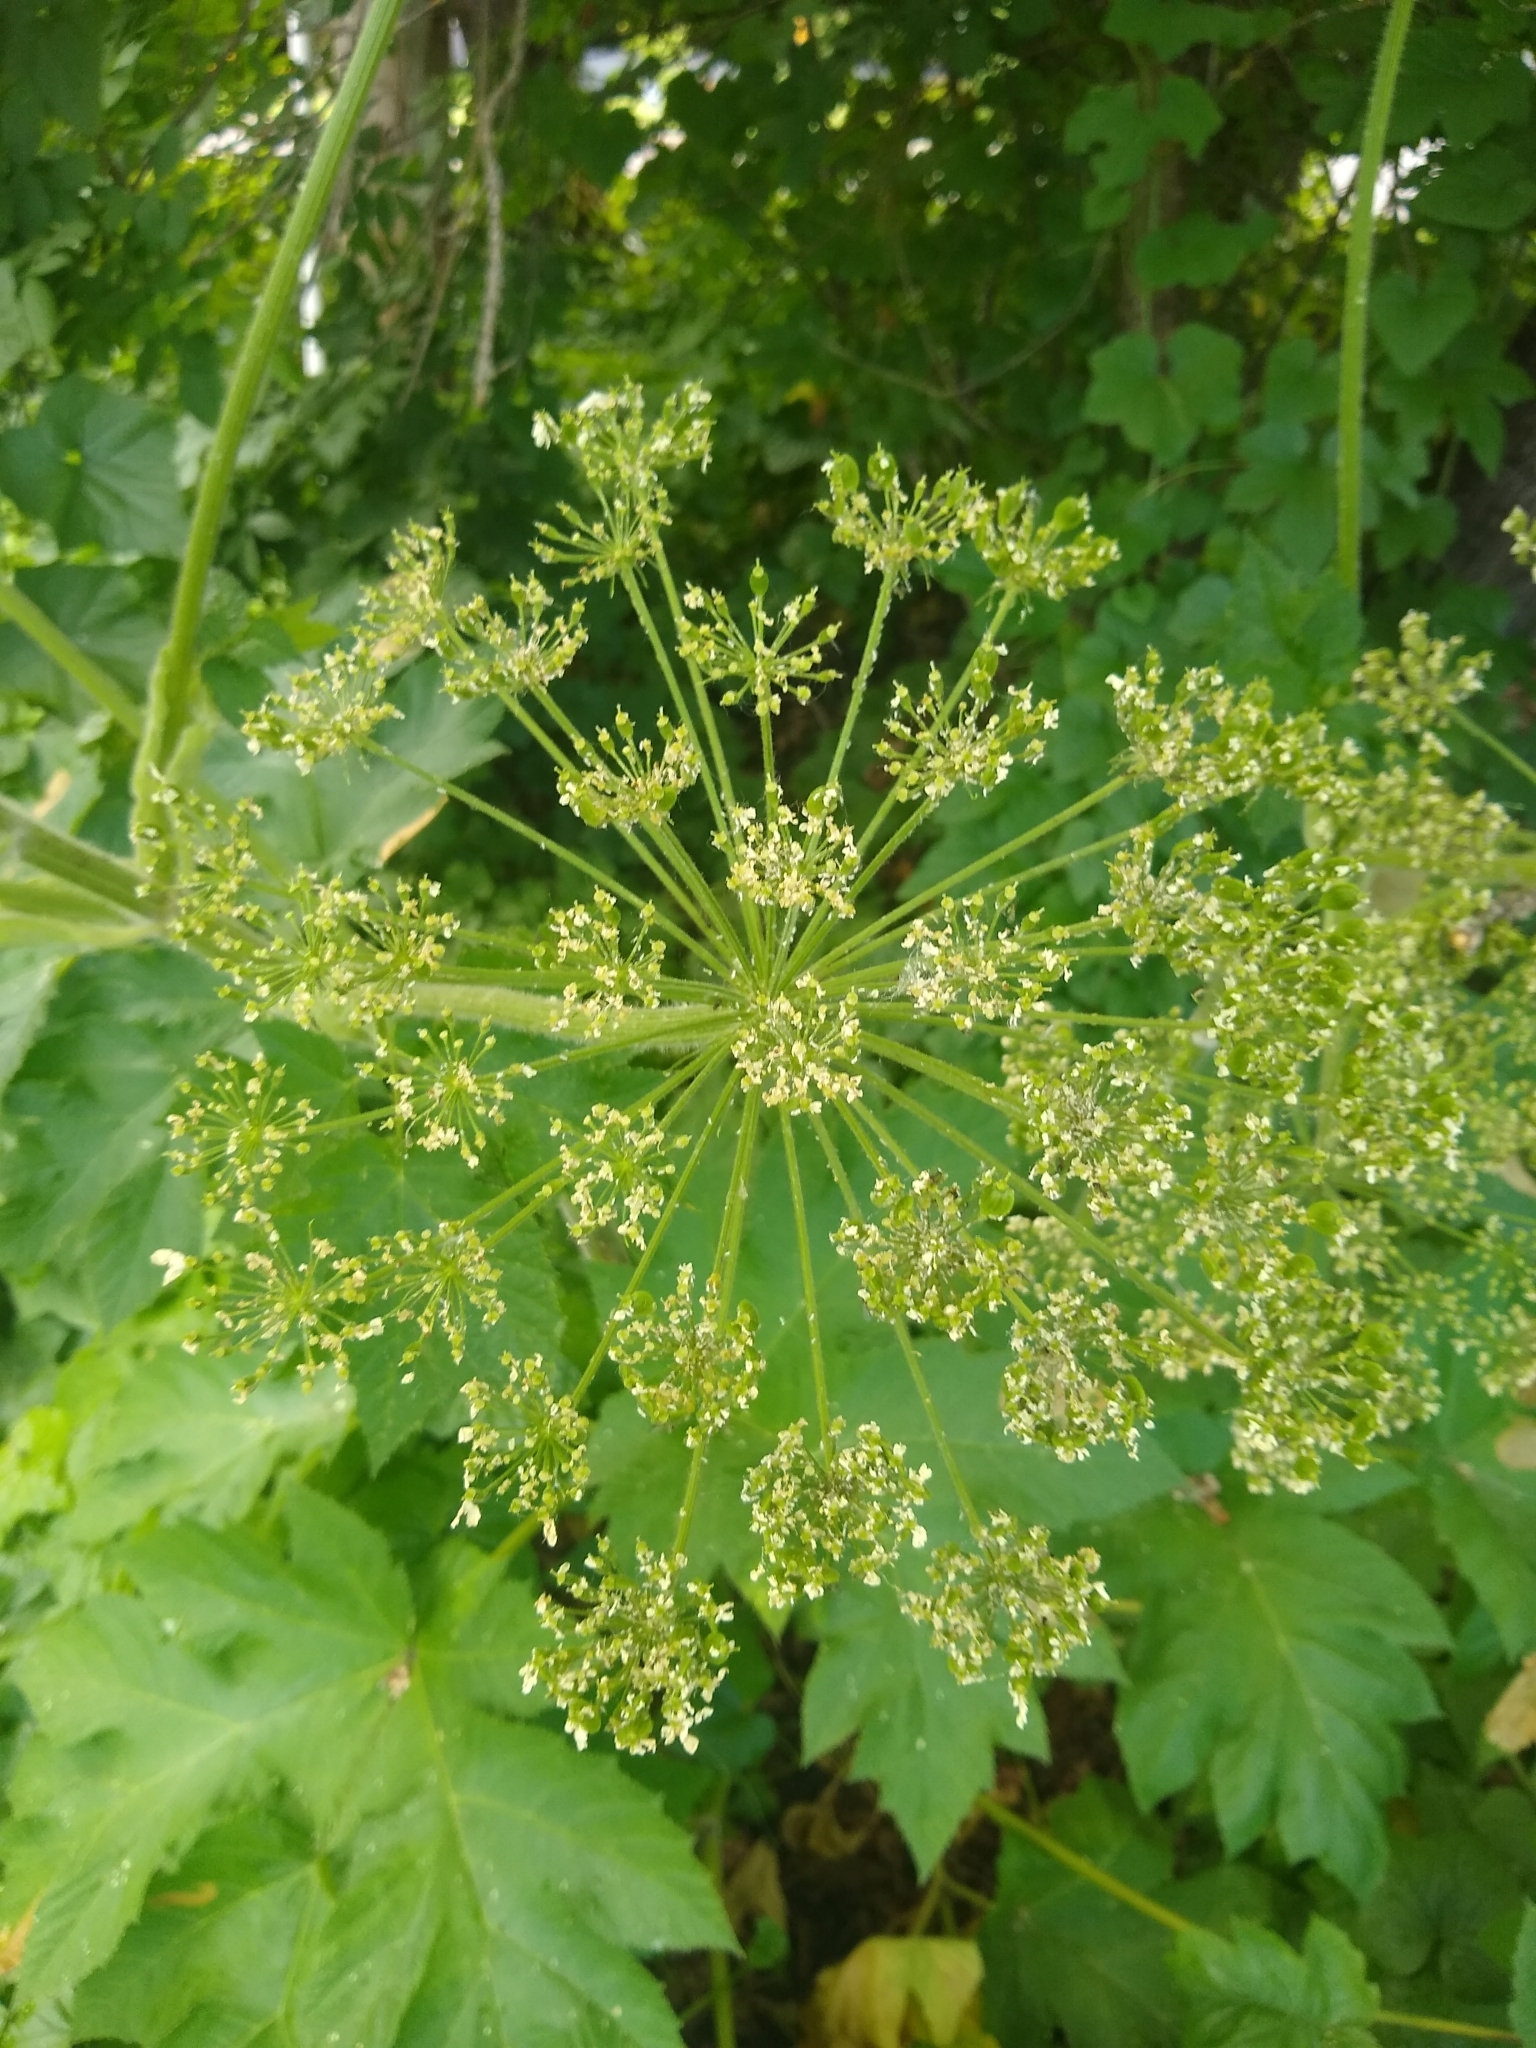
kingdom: Plantae
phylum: Tracheophyta
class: Magnoliopsida
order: Apiales
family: Apiaceae
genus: Heracleum
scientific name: Heracleum maximum
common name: American cow parsnip
